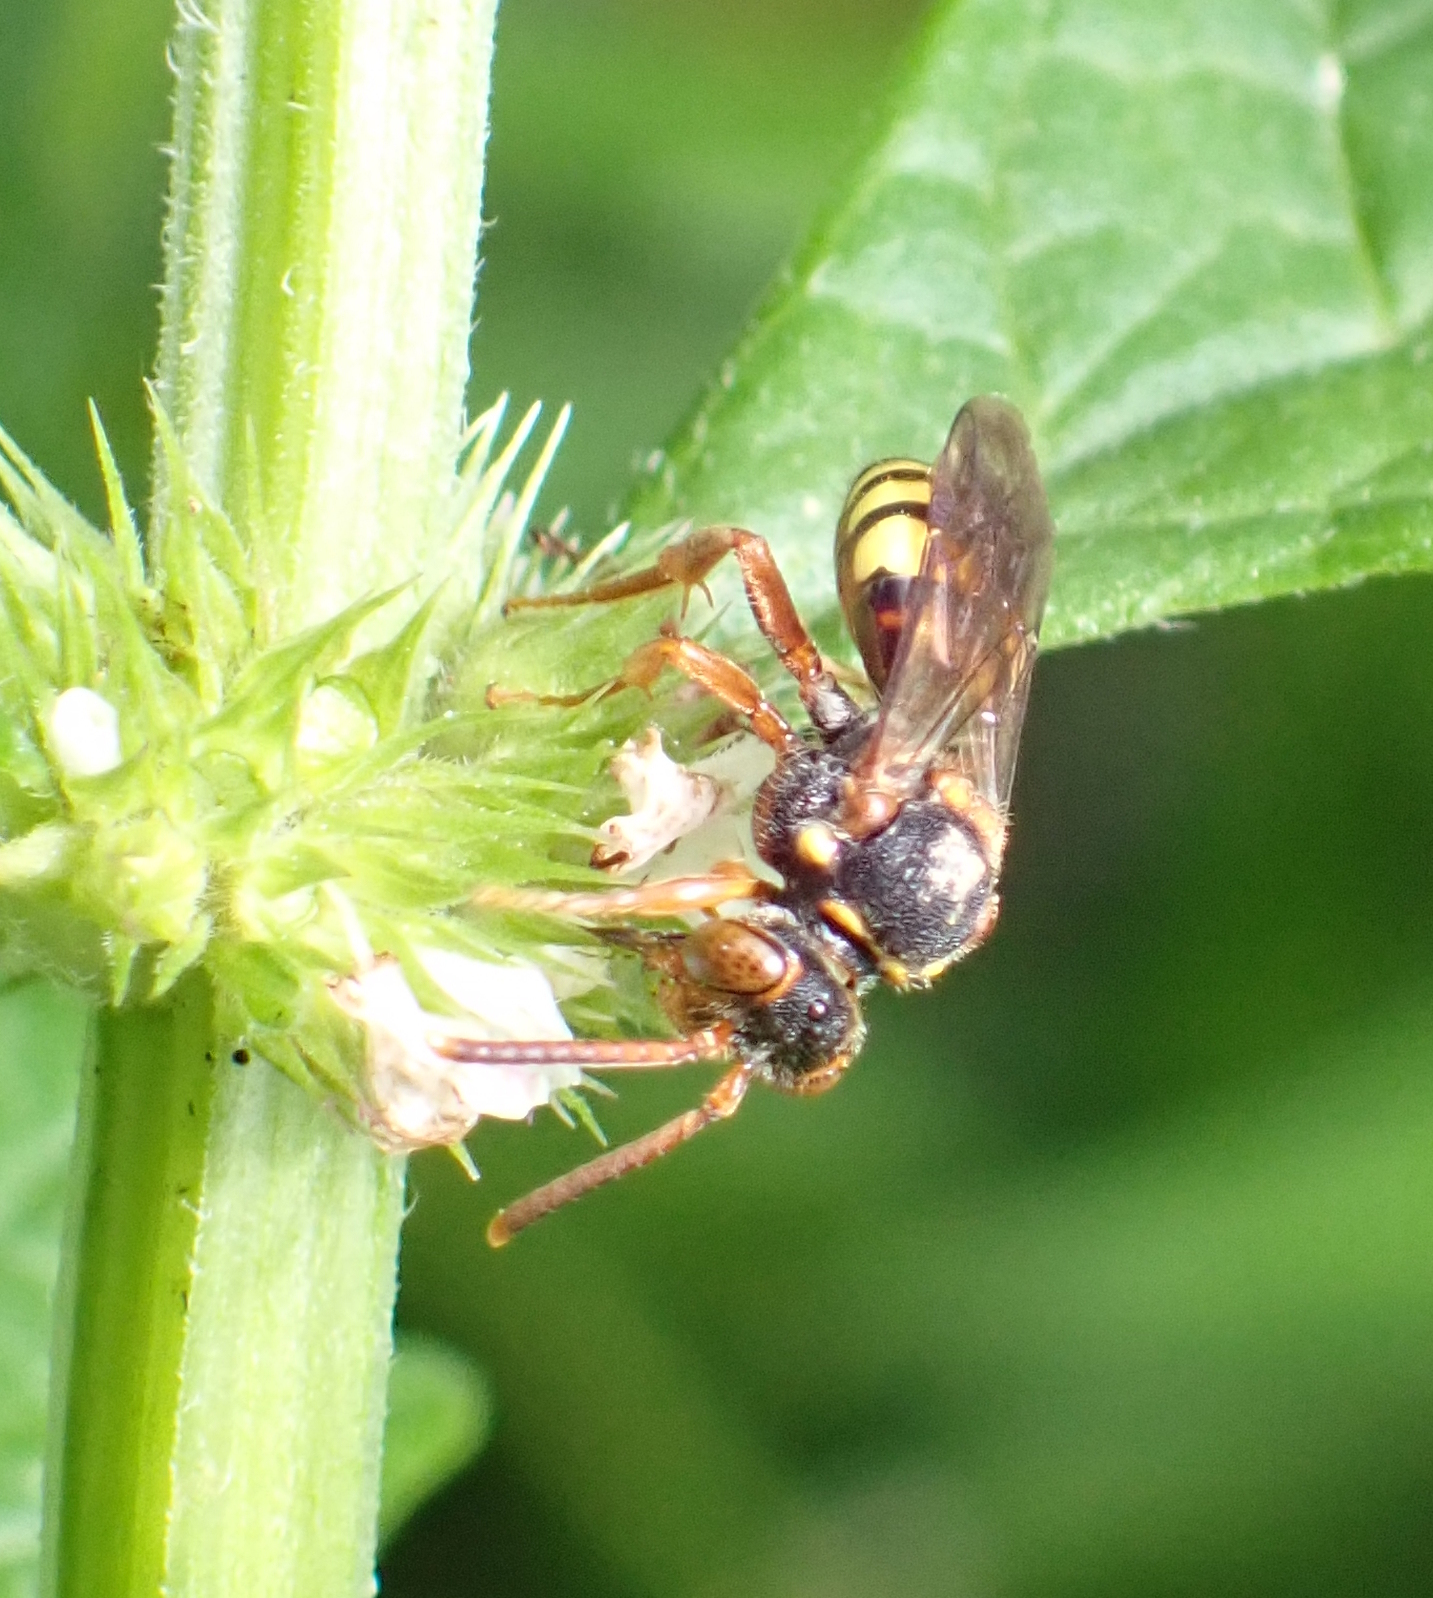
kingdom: Animalia
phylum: Arthropoda
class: Insecta
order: Hymenoptera
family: Apidae
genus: Nomada
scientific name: Nomada zonata
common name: Variable nomad bee
